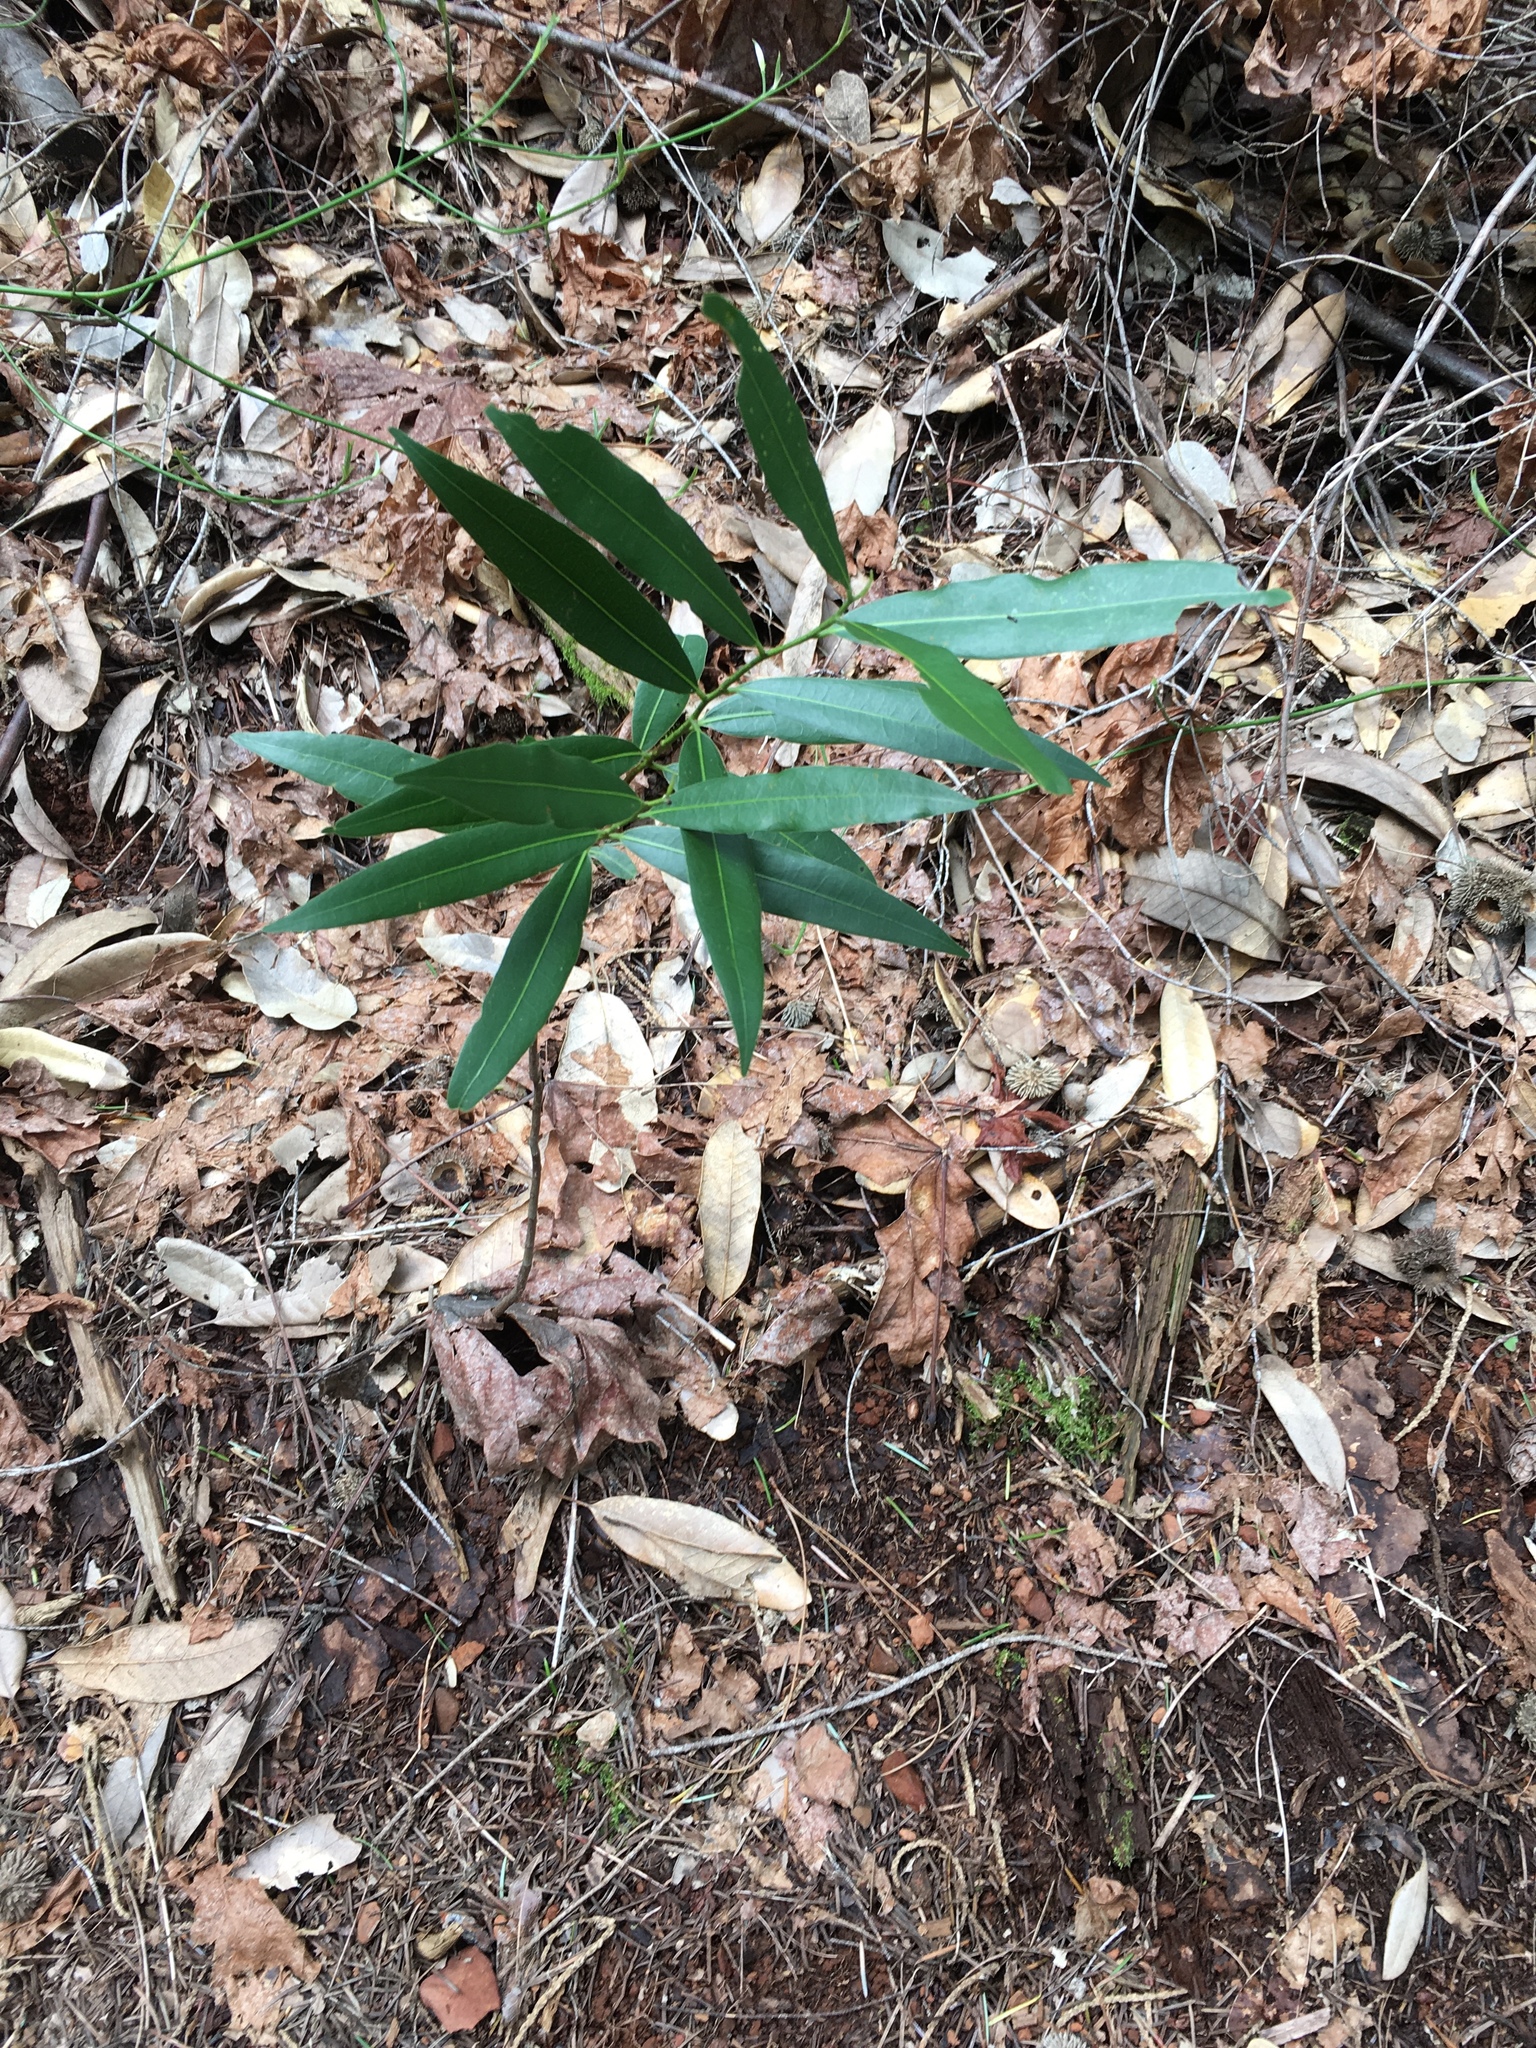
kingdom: Plantae
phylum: Tracheophyta
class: Magnoliopsida
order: Laurales
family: Lauraceae
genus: Umbellularia
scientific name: Umbellularia californica
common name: California bay
